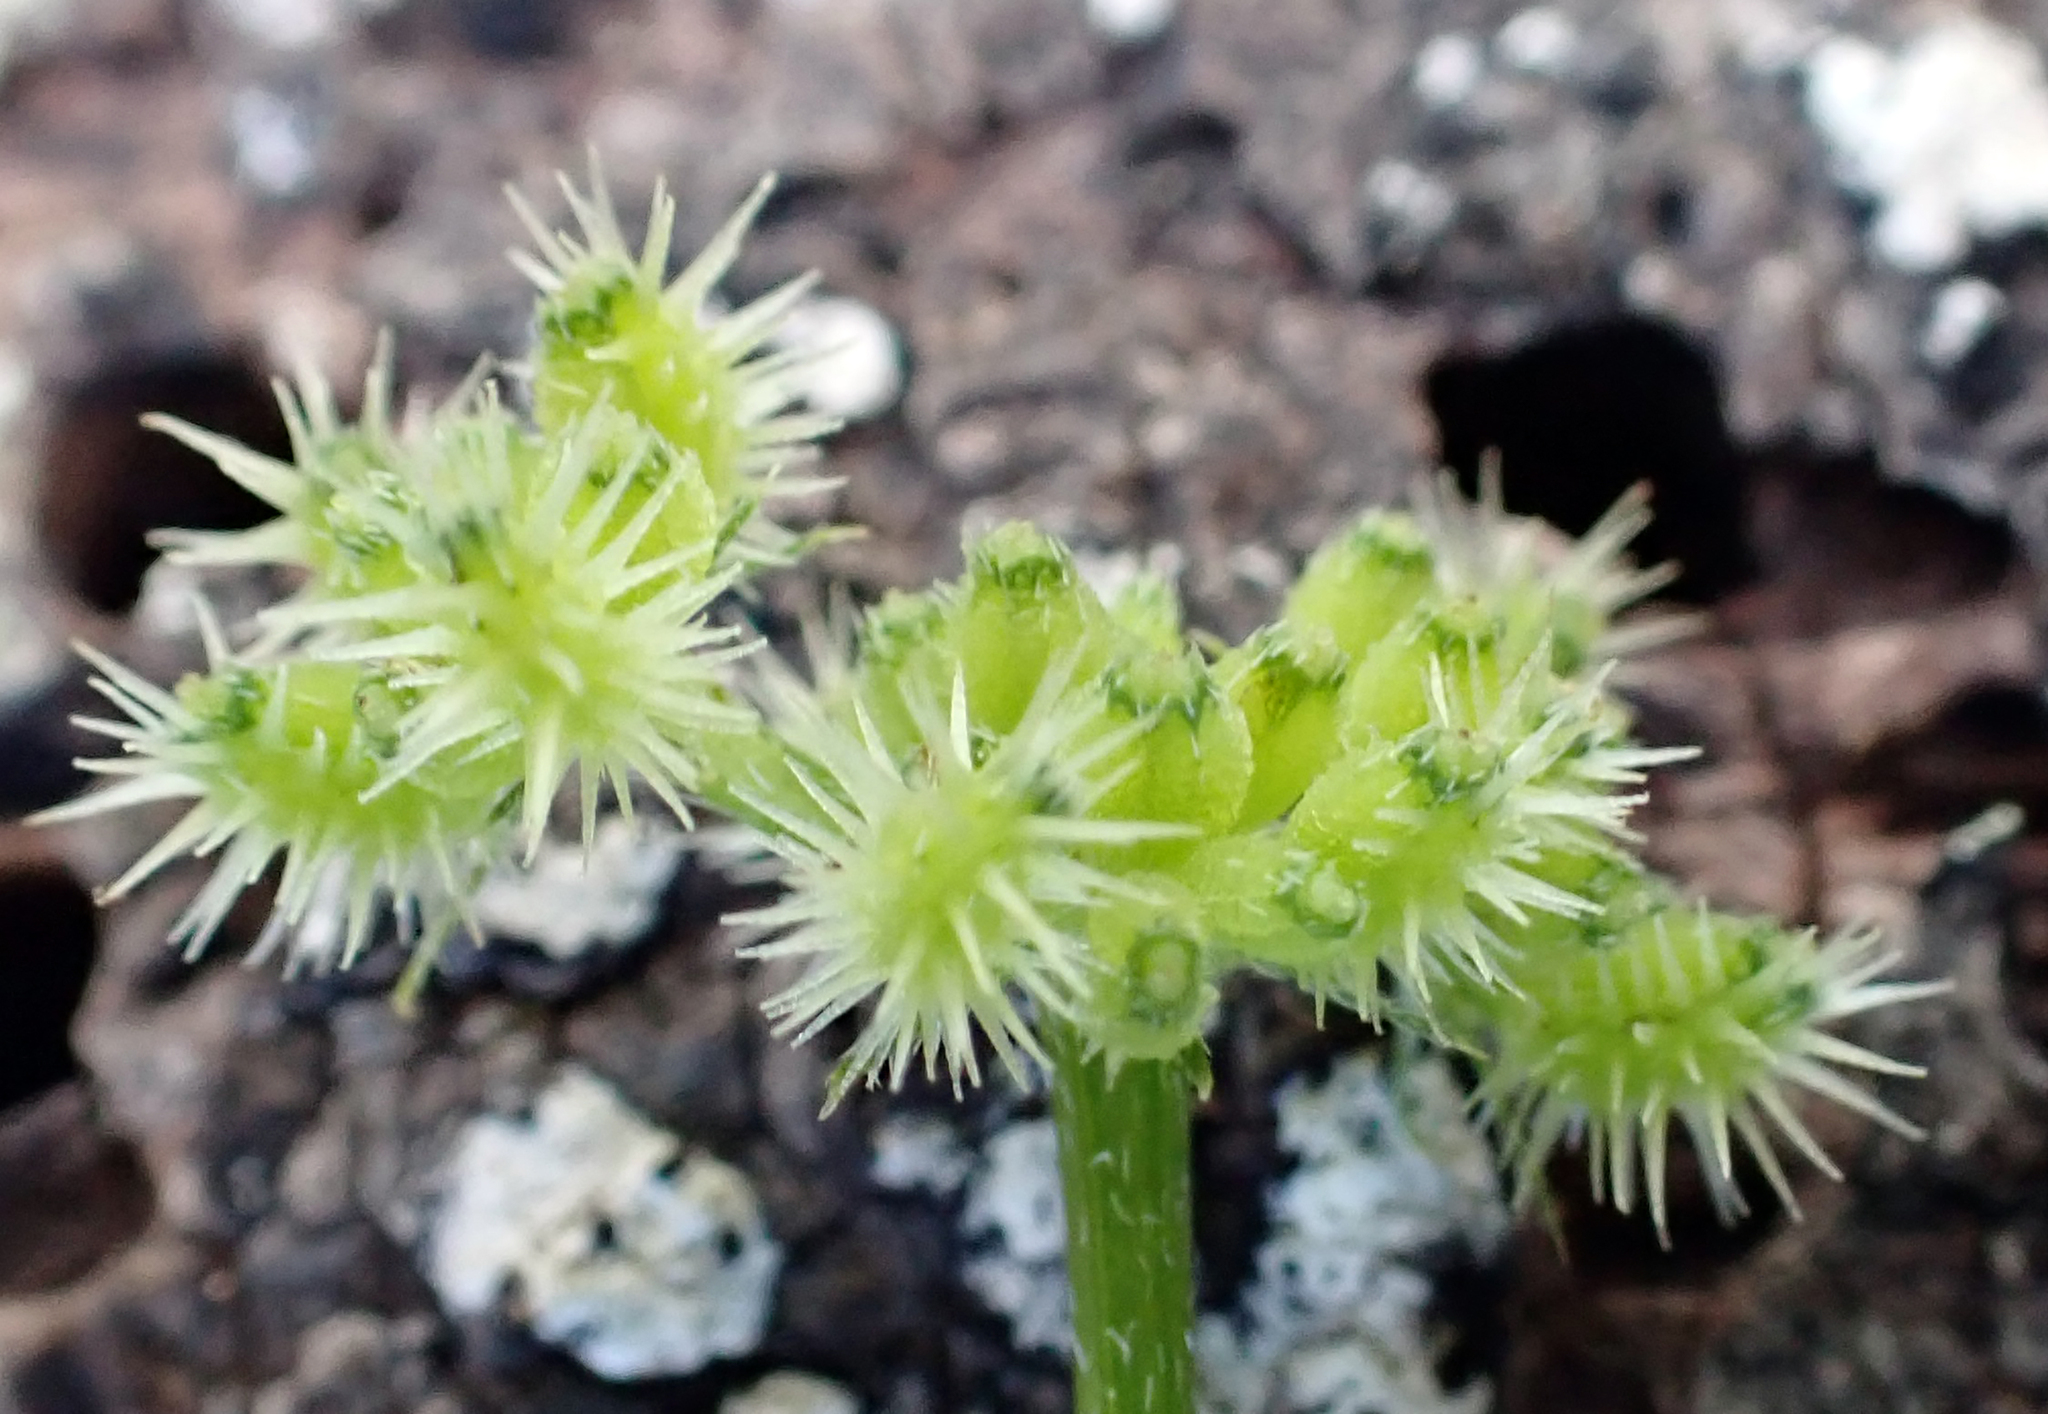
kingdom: Plantae
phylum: Tracheophyta
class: Magnoliopsida
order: Apiales
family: Apiaceae
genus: Torilis
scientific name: Torilis nodosa
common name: Knotted hedge-parsley
